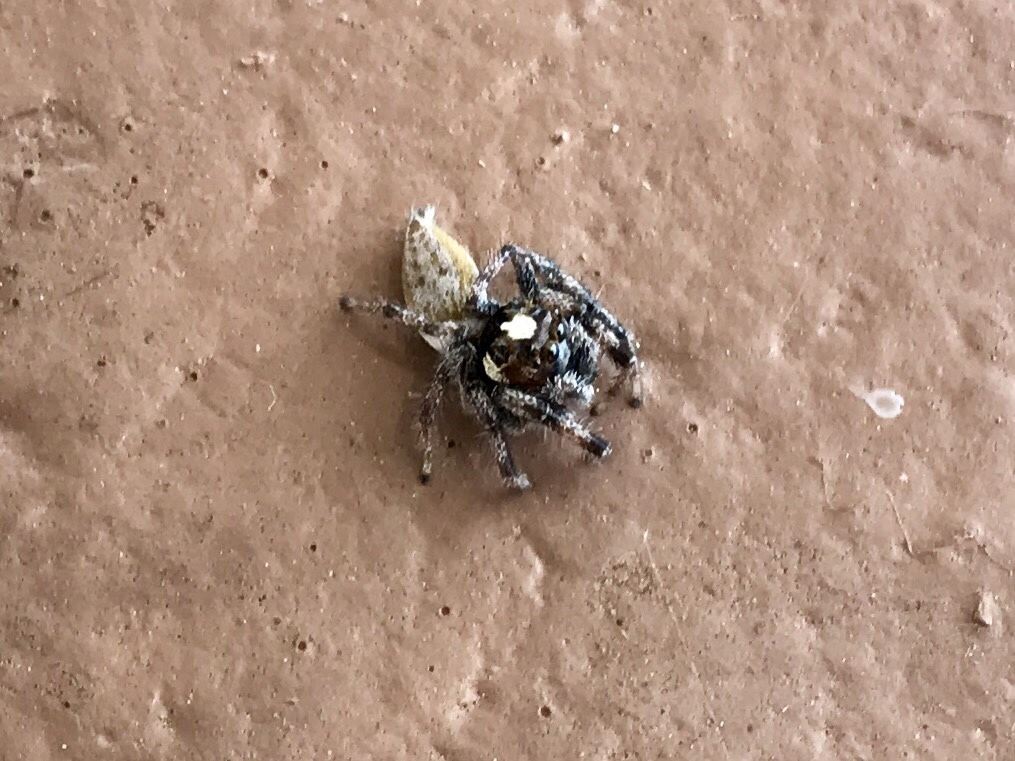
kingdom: Animalia
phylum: Arthropoda
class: Arachnida
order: Araneae
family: Salticidae
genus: Colonus
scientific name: Colonus hesperus
